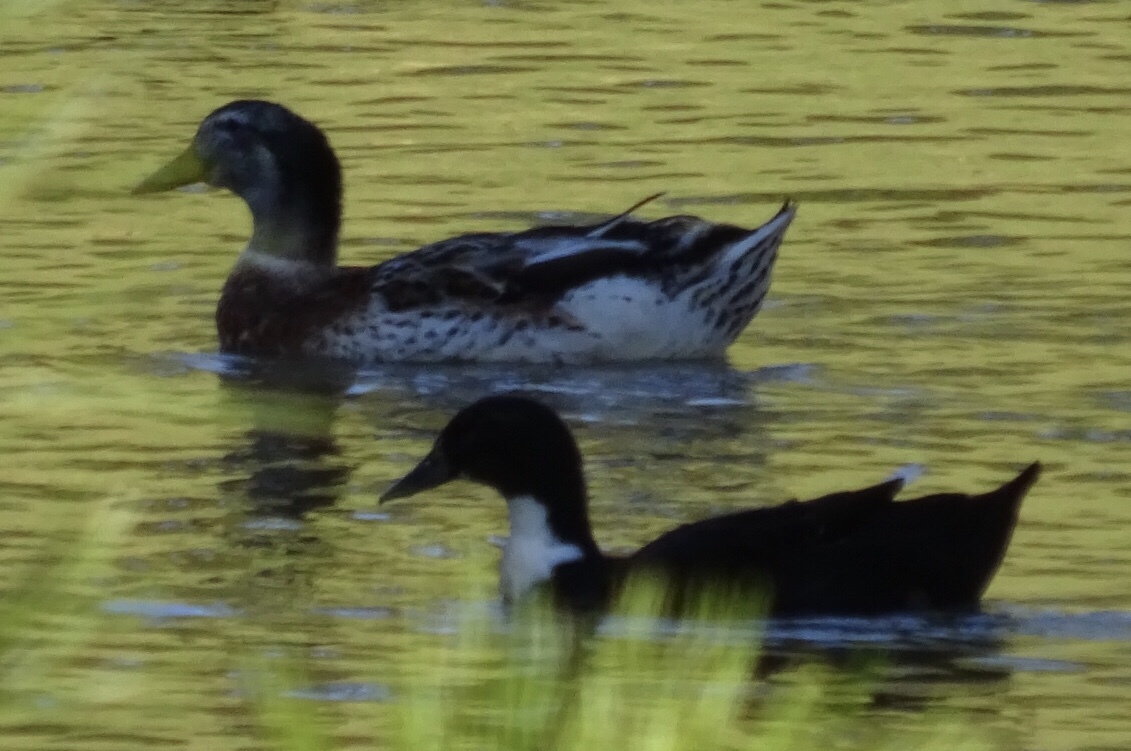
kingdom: Animalia
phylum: Chordata
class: Aves
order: Anseriformes
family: Anatidae
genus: Anas
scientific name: Anas platyrhynchos
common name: Mallard
